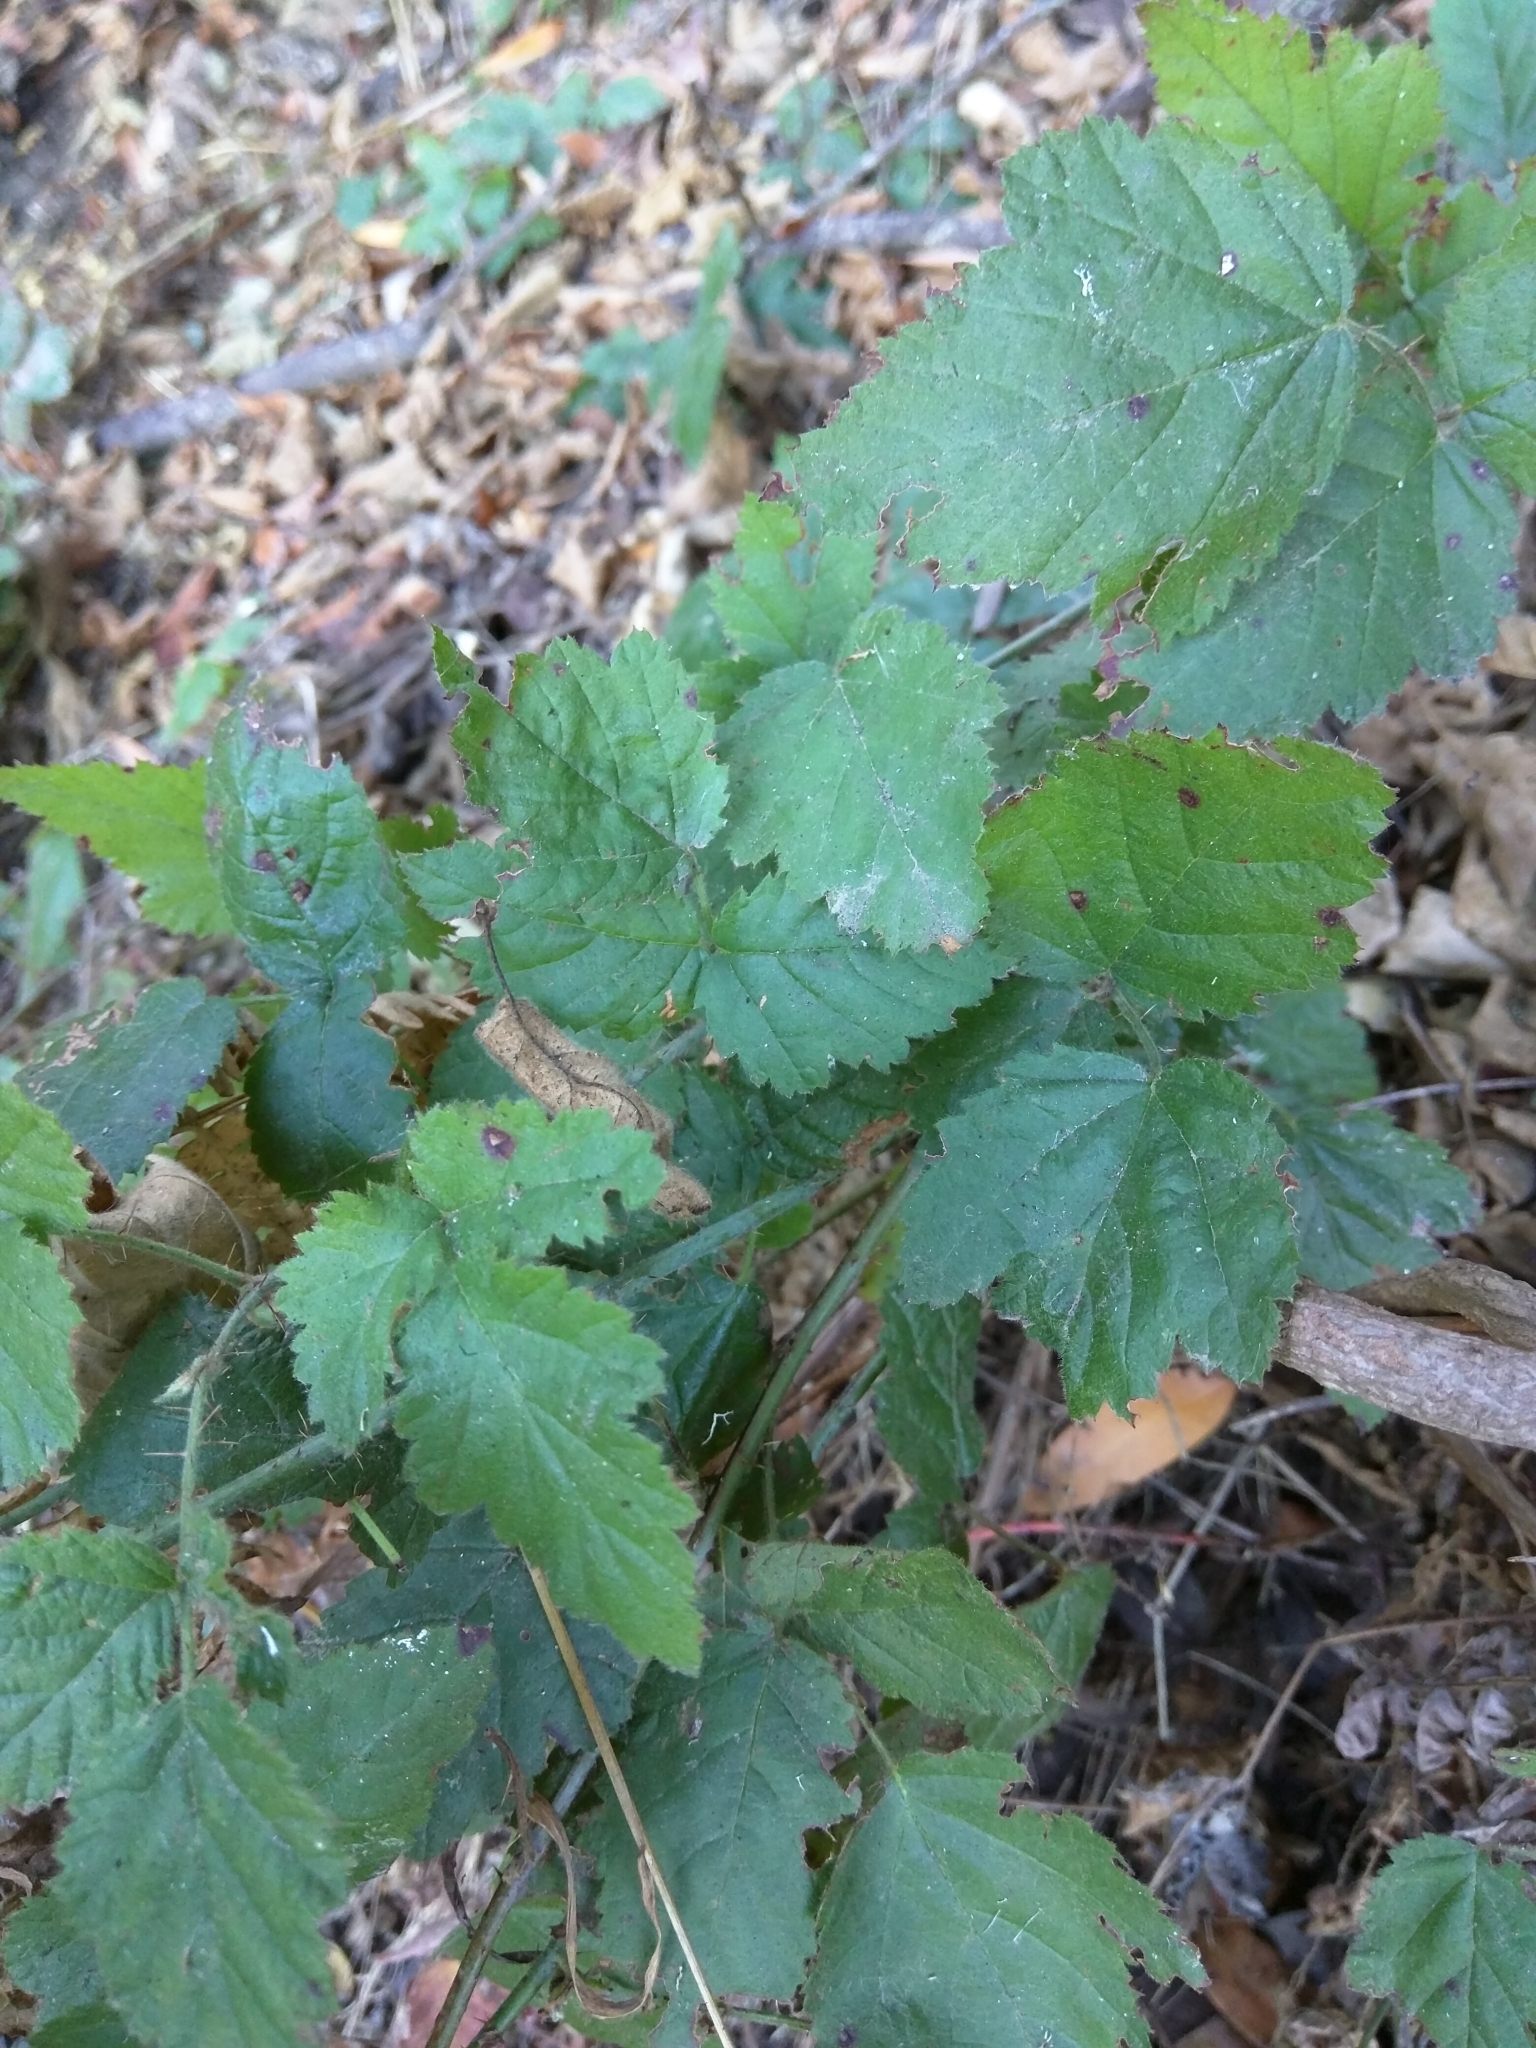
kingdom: Plantae
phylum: Tracheophyta
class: Magnoliopsida
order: Rosales
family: Rosaceae
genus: Rubus
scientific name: Rubus ursinus
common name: Pacific blackberry
